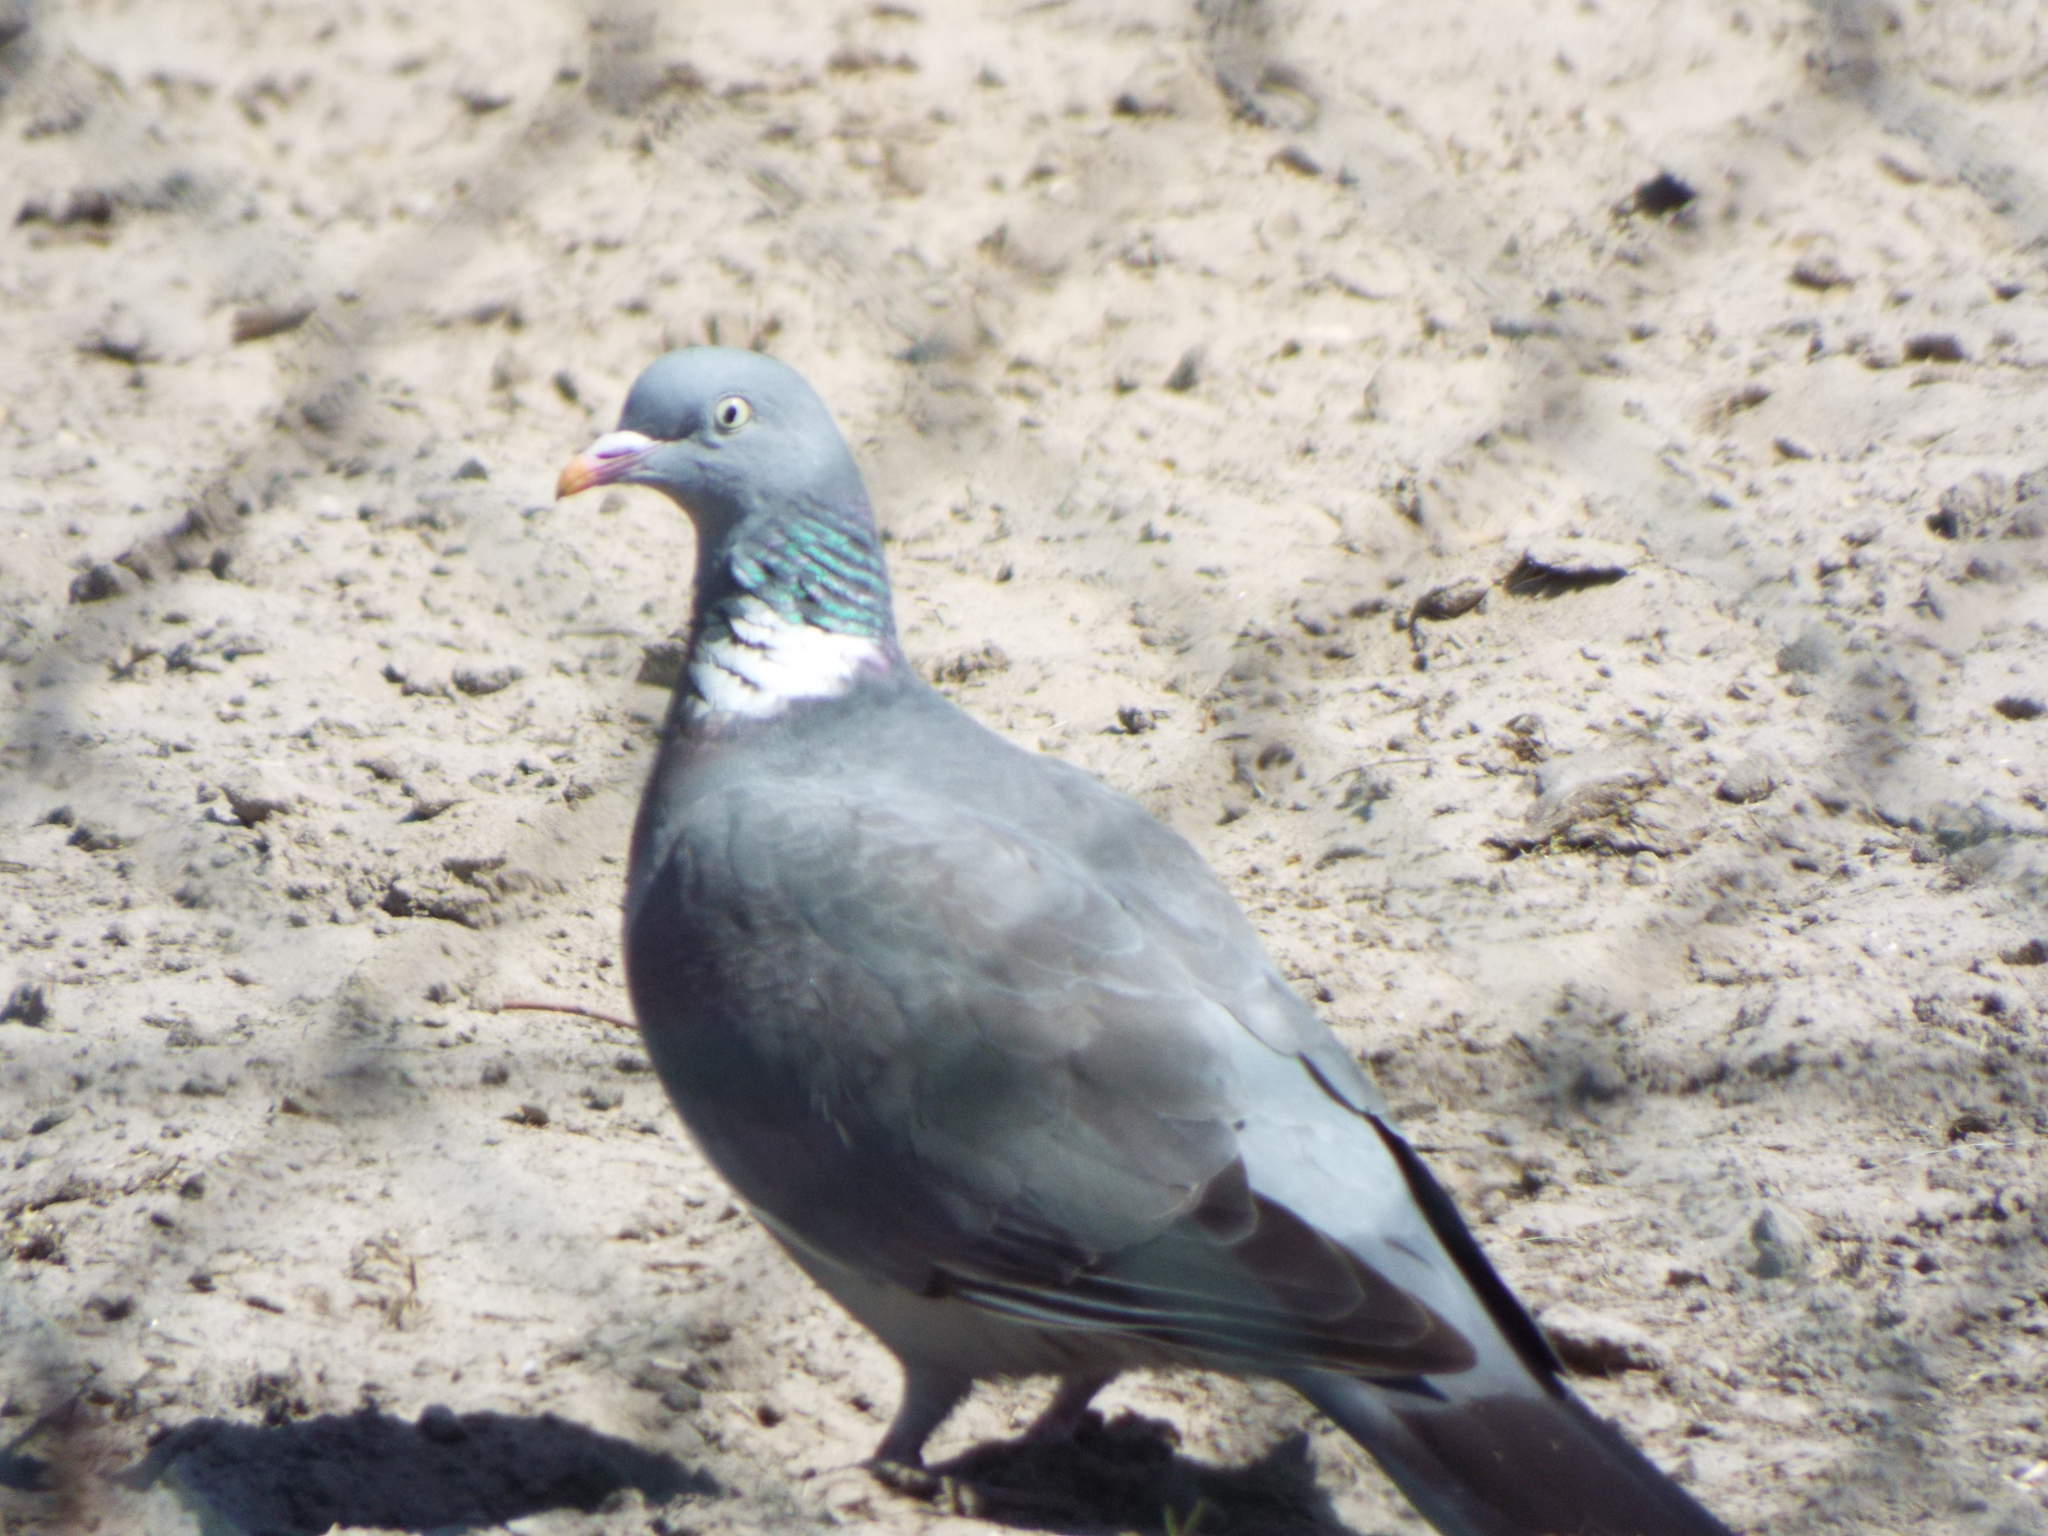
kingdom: Animalia
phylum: Chordata
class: Aves
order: Columbiformes
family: Columbidae
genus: Columba
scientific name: Columba palumbus
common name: Common wood pigeon
